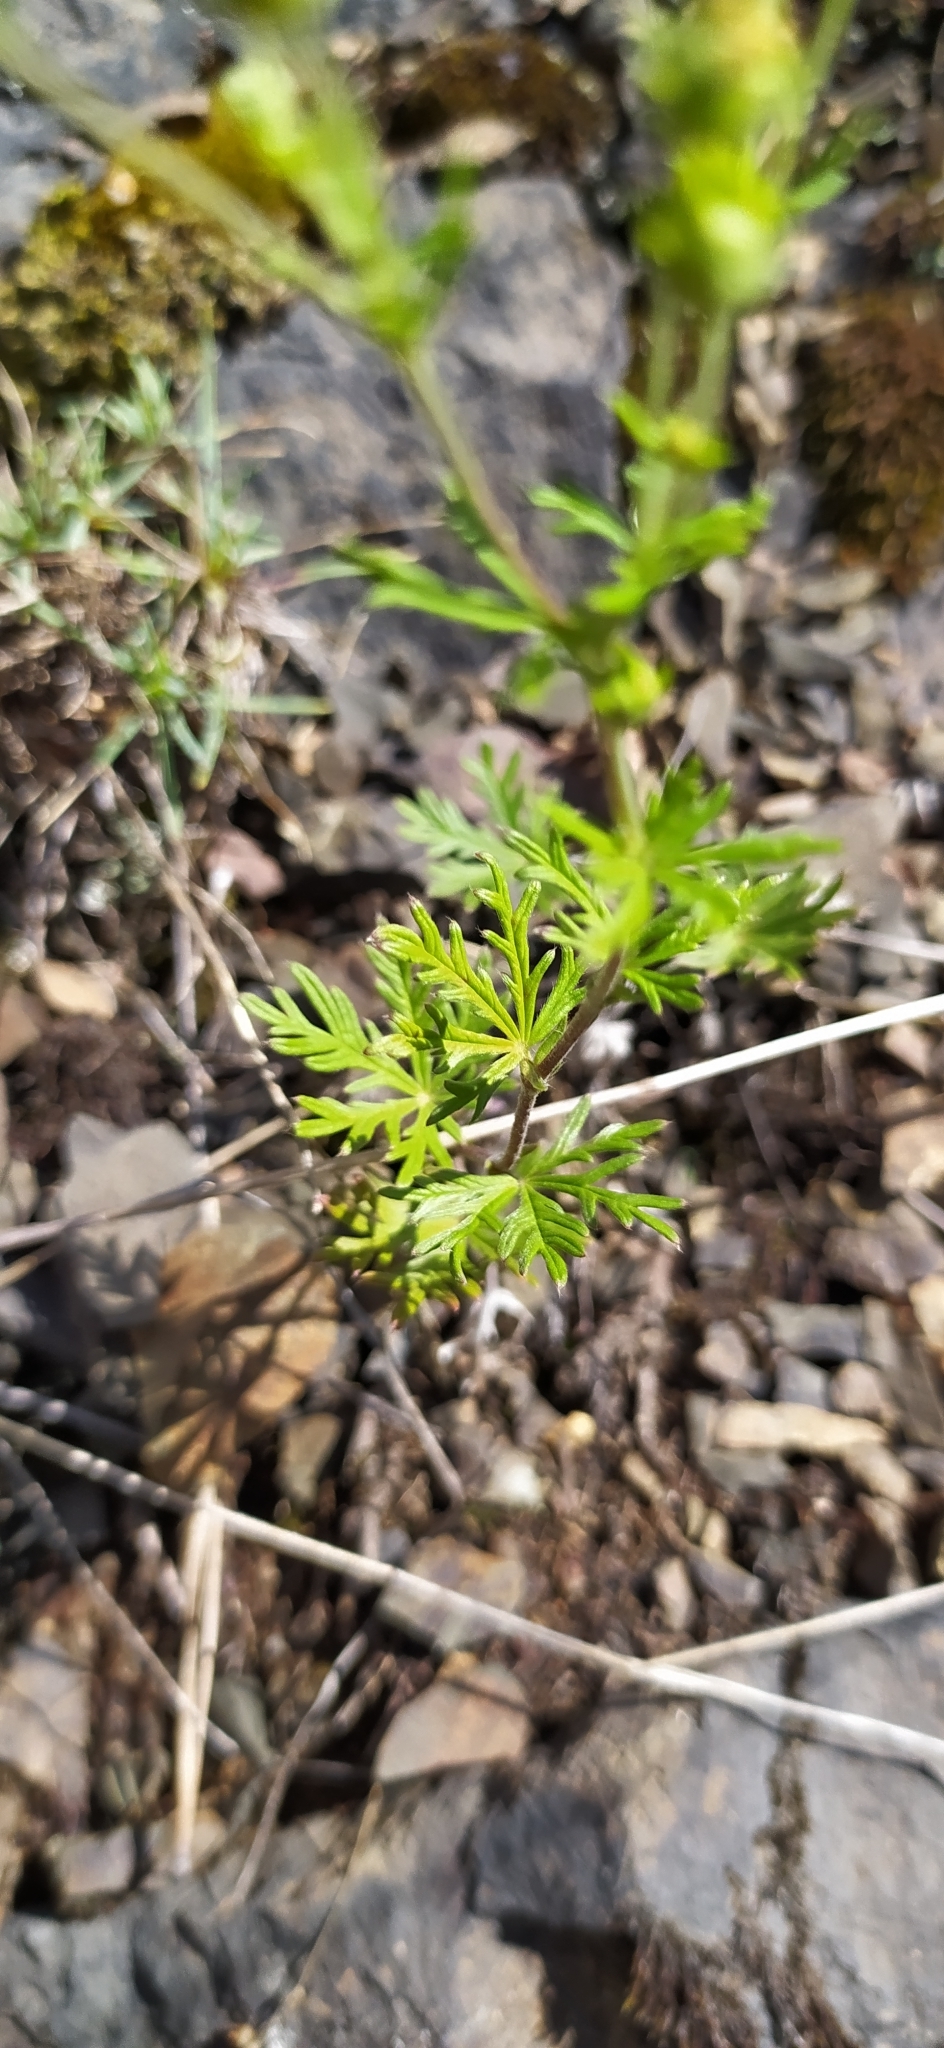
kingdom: Plantae
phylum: Tracheophyta
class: Magnoliopsida
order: Rosales
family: Rosaceae
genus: Potentilla
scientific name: Potentilla argentea
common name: Hoary cinquefoil
